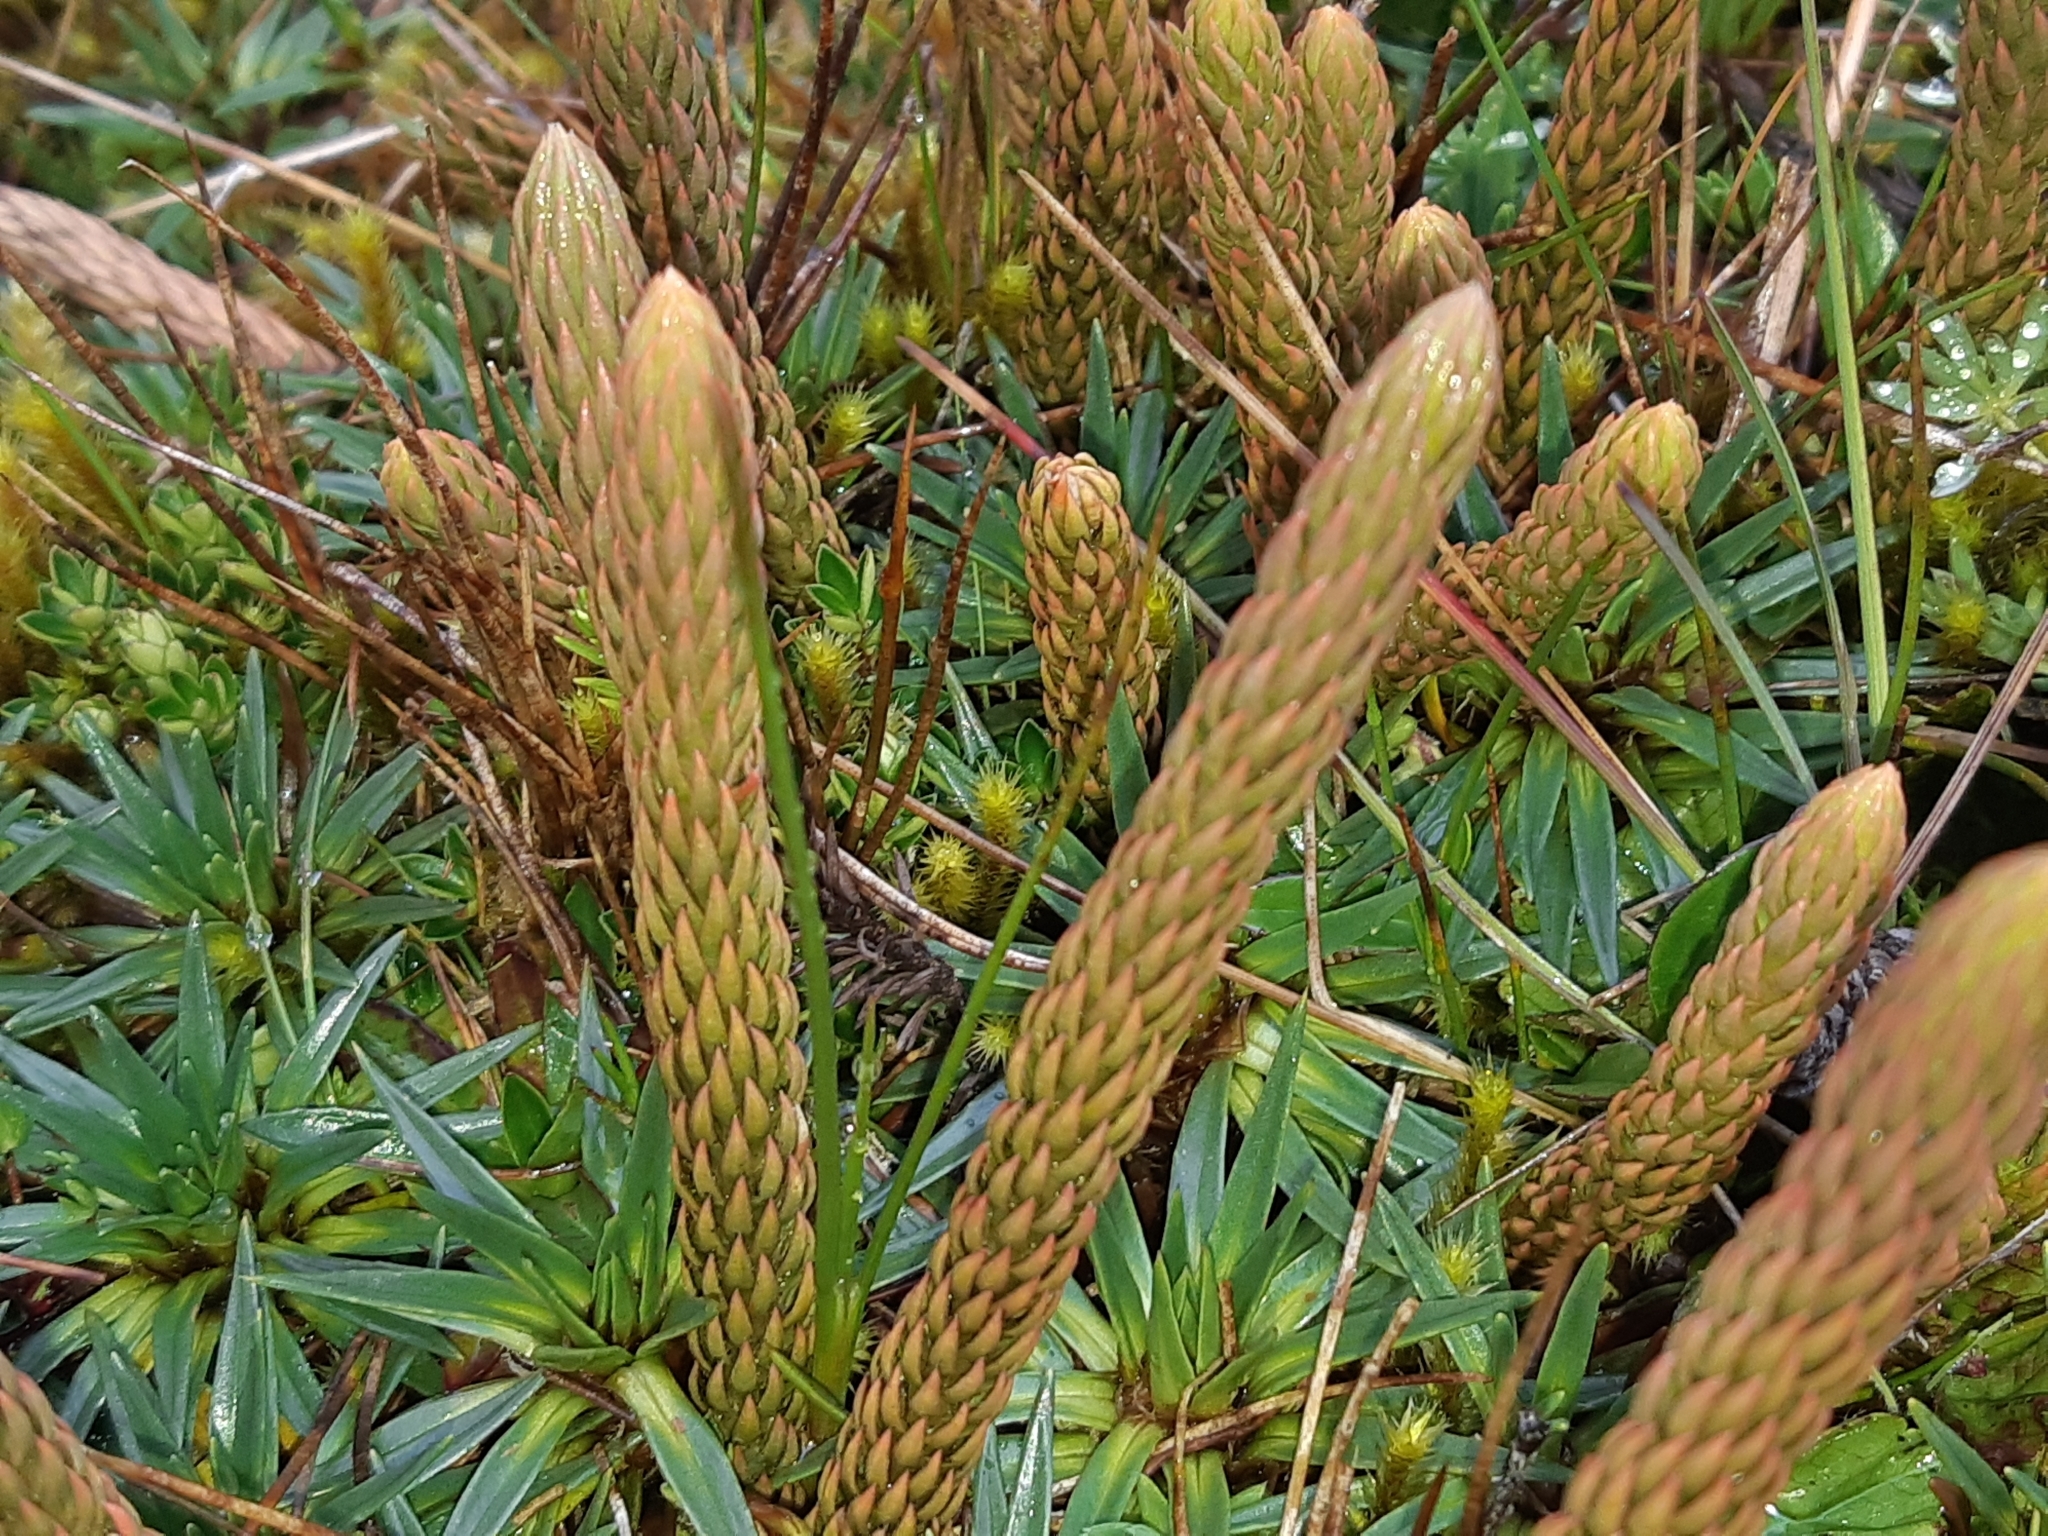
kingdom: Plantae
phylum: Tracheophyta
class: Lycopodiopsida
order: Lycopodiales
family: Lycopodiaceae
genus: Phlegmariurus
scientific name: Phlegmariurus crassus
